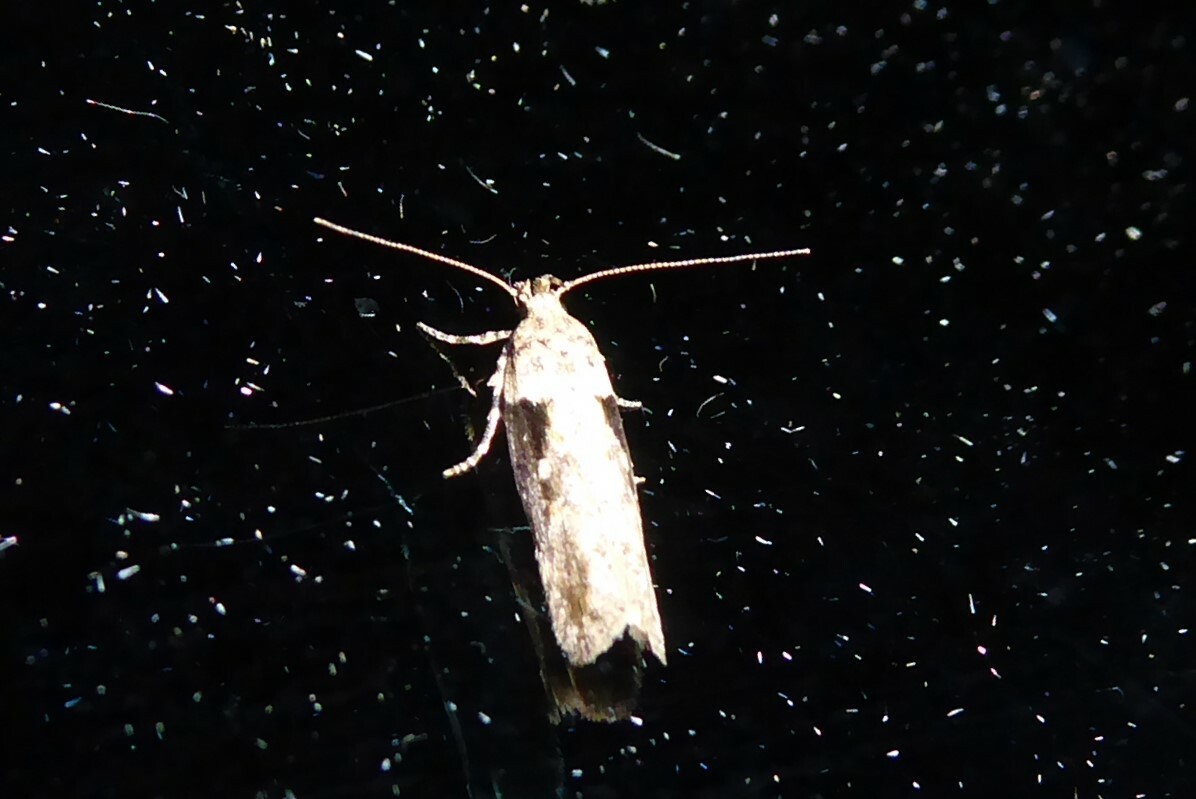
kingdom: Animalia
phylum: Arthropoda
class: Insecta
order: Lepidoptera
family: Gelechiidae
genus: Symmetrischema
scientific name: Symmetrischema tangolias
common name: Moth
